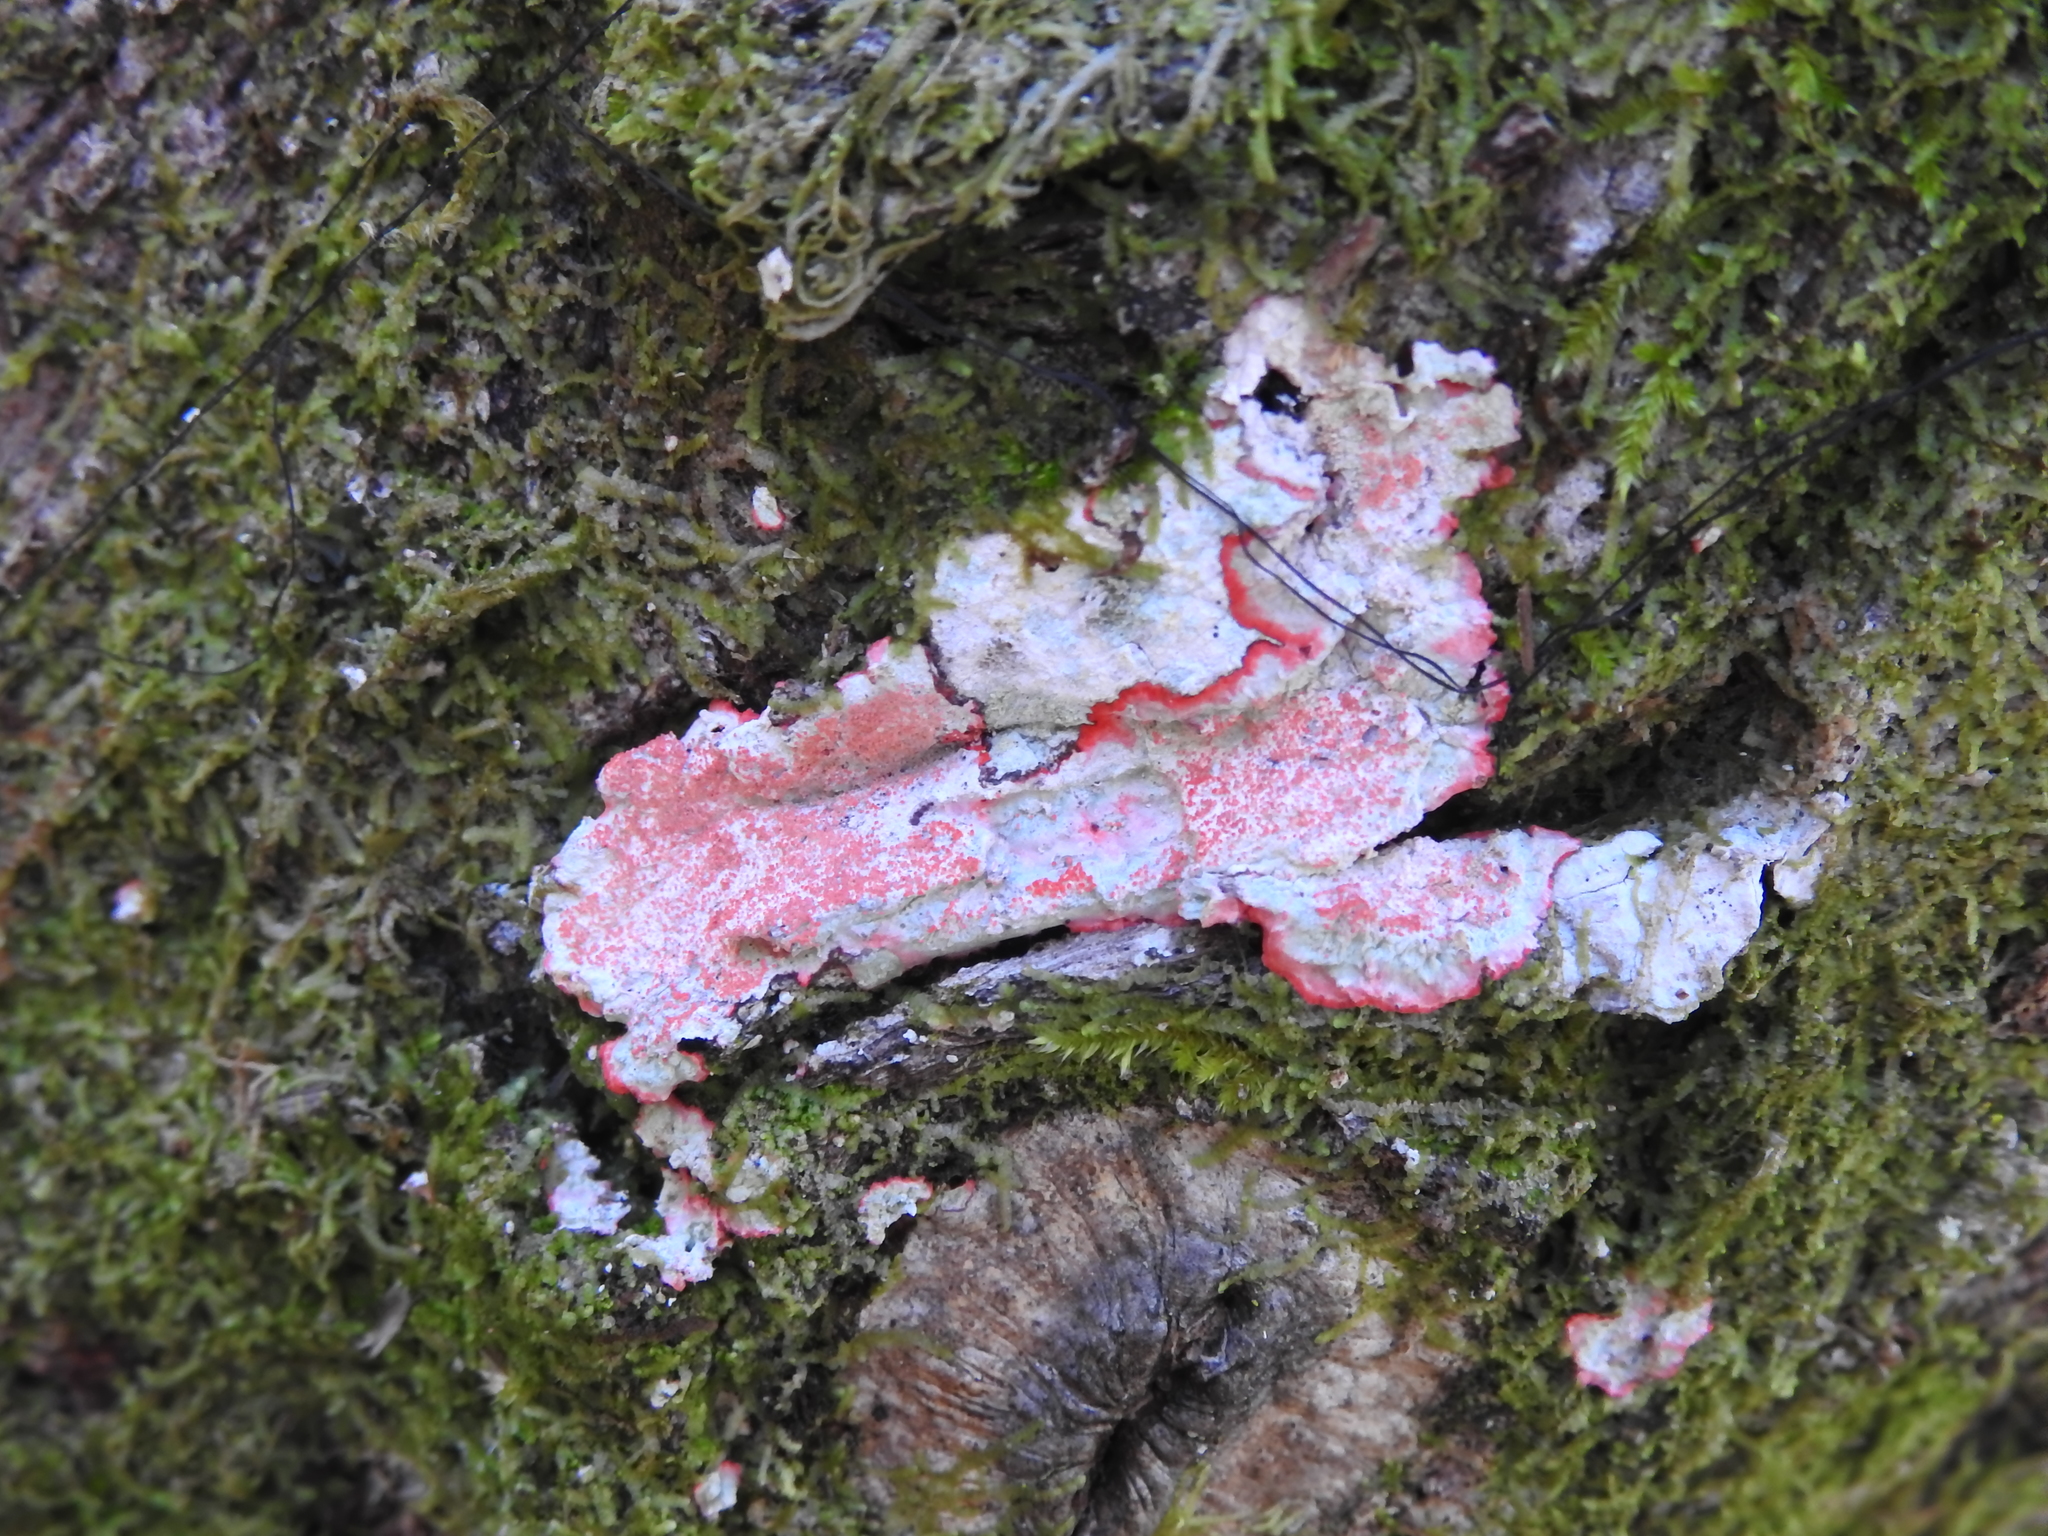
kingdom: Fungi
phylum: Ascomycota
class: Arthoniomycetes
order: Arthoniales
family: Arthoniaceae
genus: Herpothallon
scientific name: Herpothallon rubrocinctum
